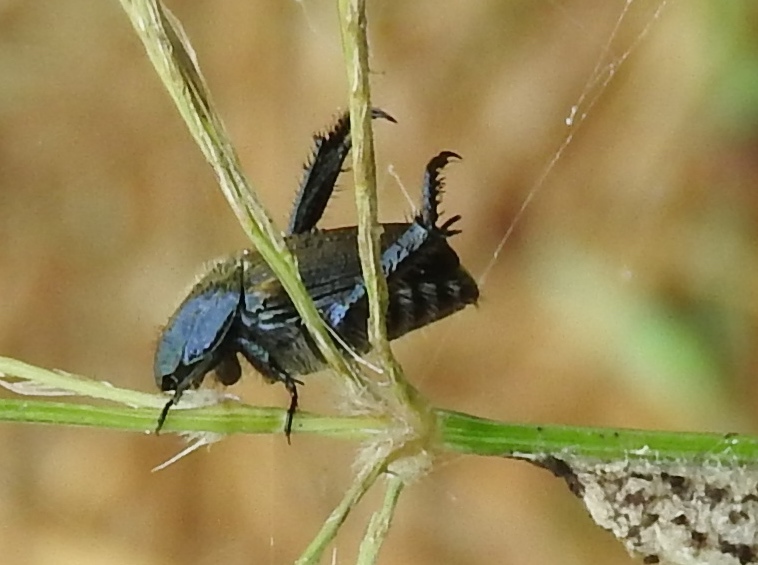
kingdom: Animalia
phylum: Arthropoda
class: Insecta
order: Coleoptera
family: Scarabaeidae
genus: Strigoderma
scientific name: Strigoderma
